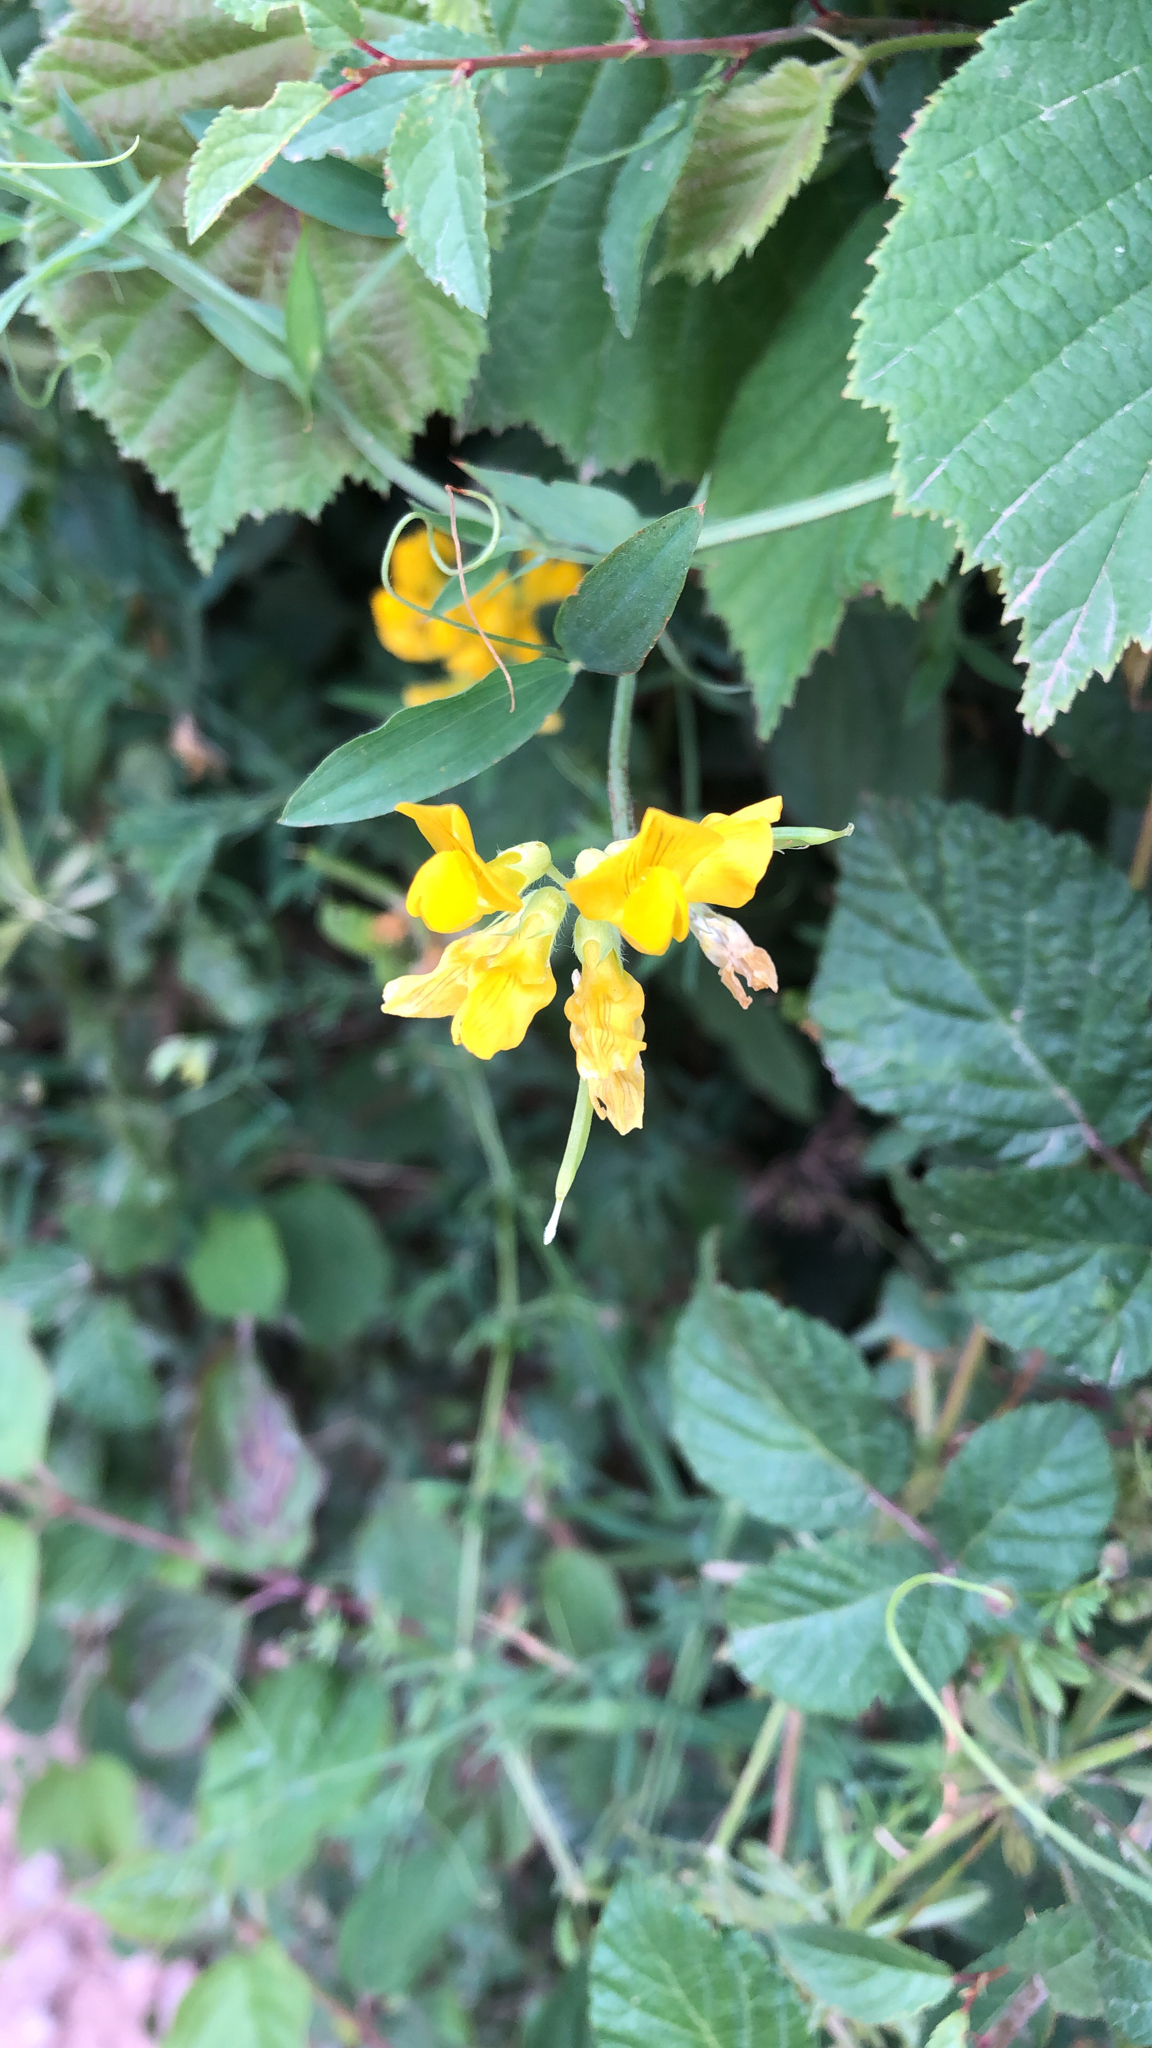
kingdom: Plantae
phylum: Tracheophyta
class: Magnoliopsida
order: Fabales
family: Fabaceae
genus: Lathyrus
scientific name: Lathyrus pratensis
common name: Meadow vetchling
